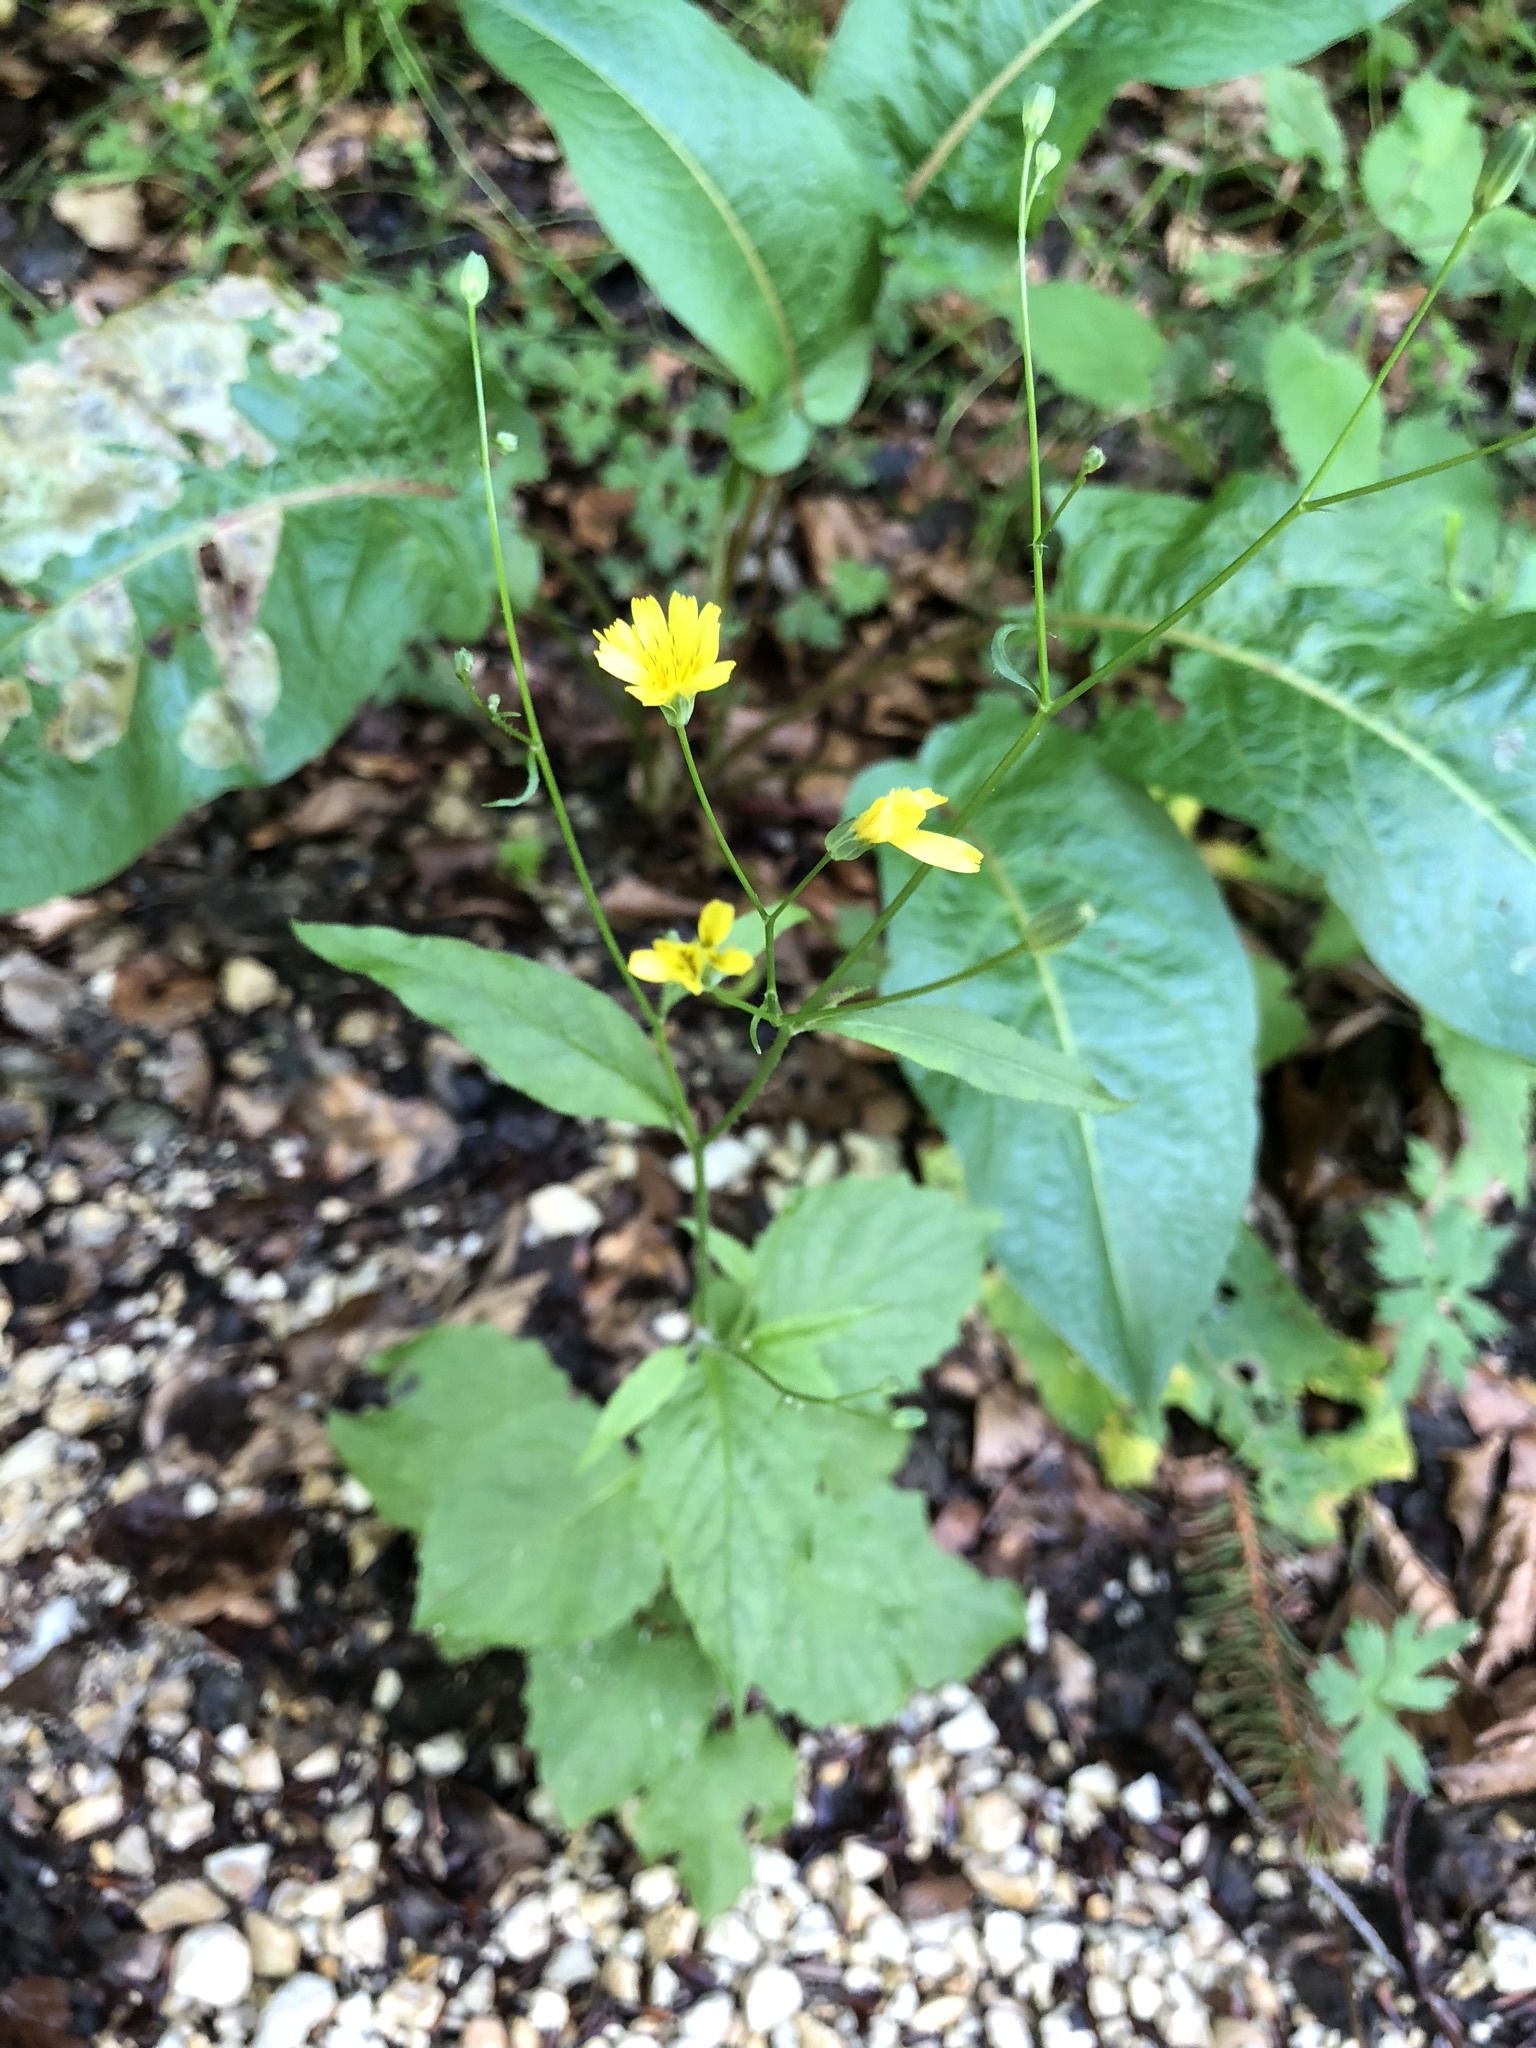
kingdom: Plantae
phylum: Tracheophyta
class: Magnoliopsida
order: Asterales
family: Asteraceae
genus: Lapsana
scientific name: Lapsana communis
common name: Nipplewort
